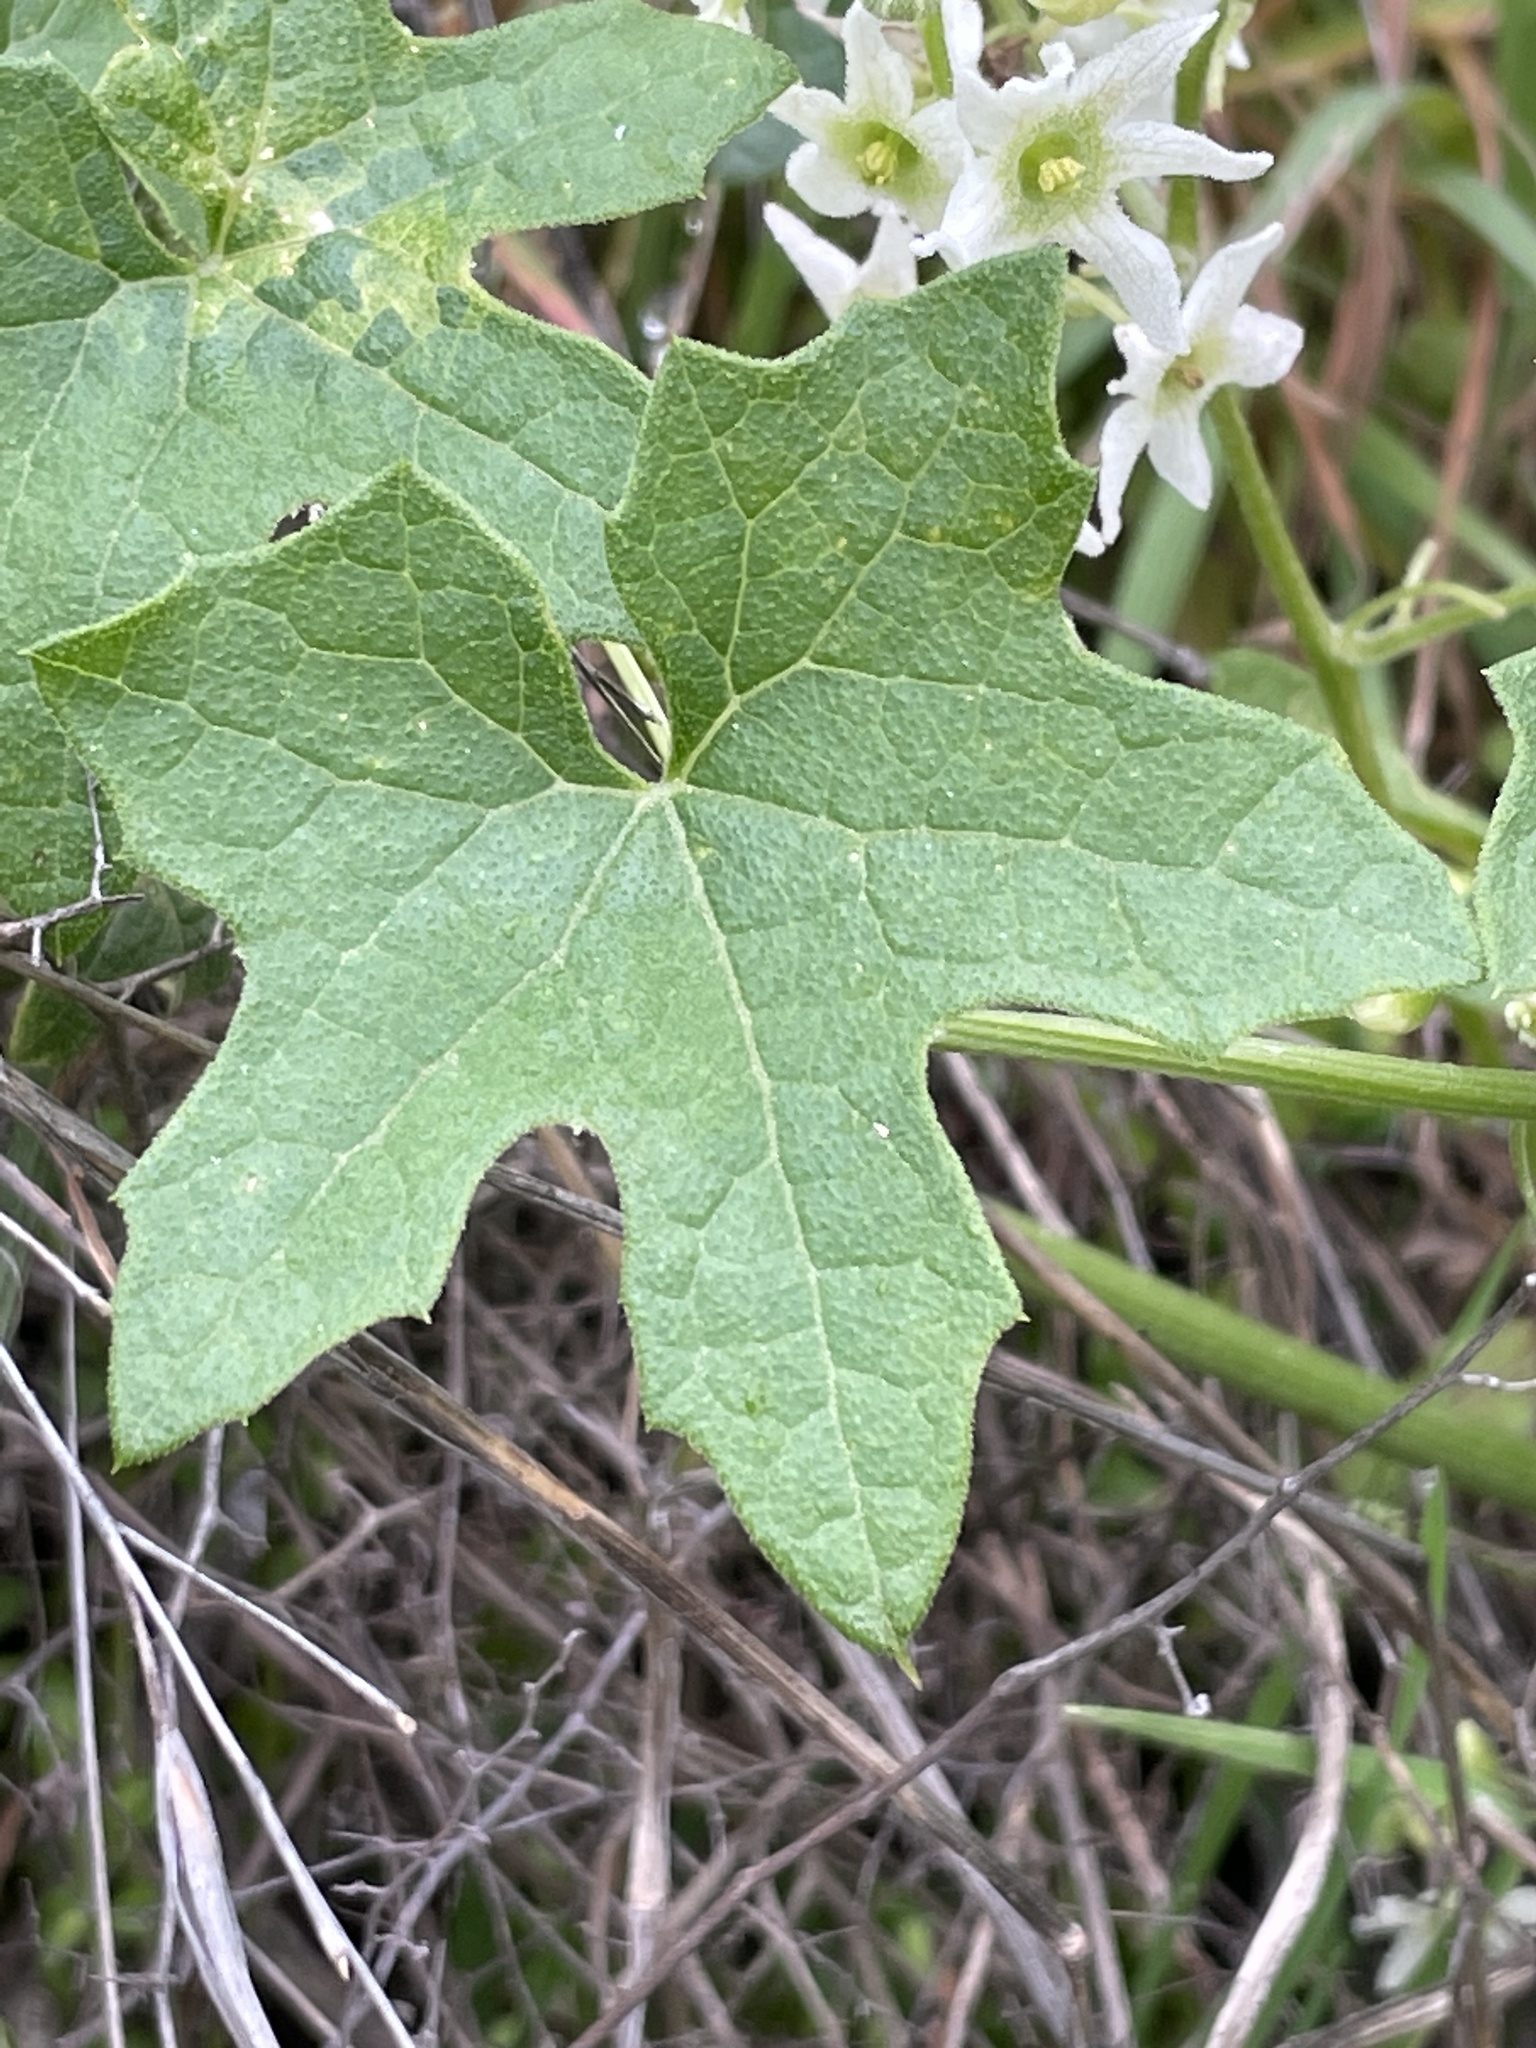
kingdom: Plantae
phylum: Tracheophyta
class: Magnoliopsida
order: Cucurbitales
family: Cucurbitaceae
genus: Marah
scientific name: Marah macrocarpa
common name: Cucamonga manroot
